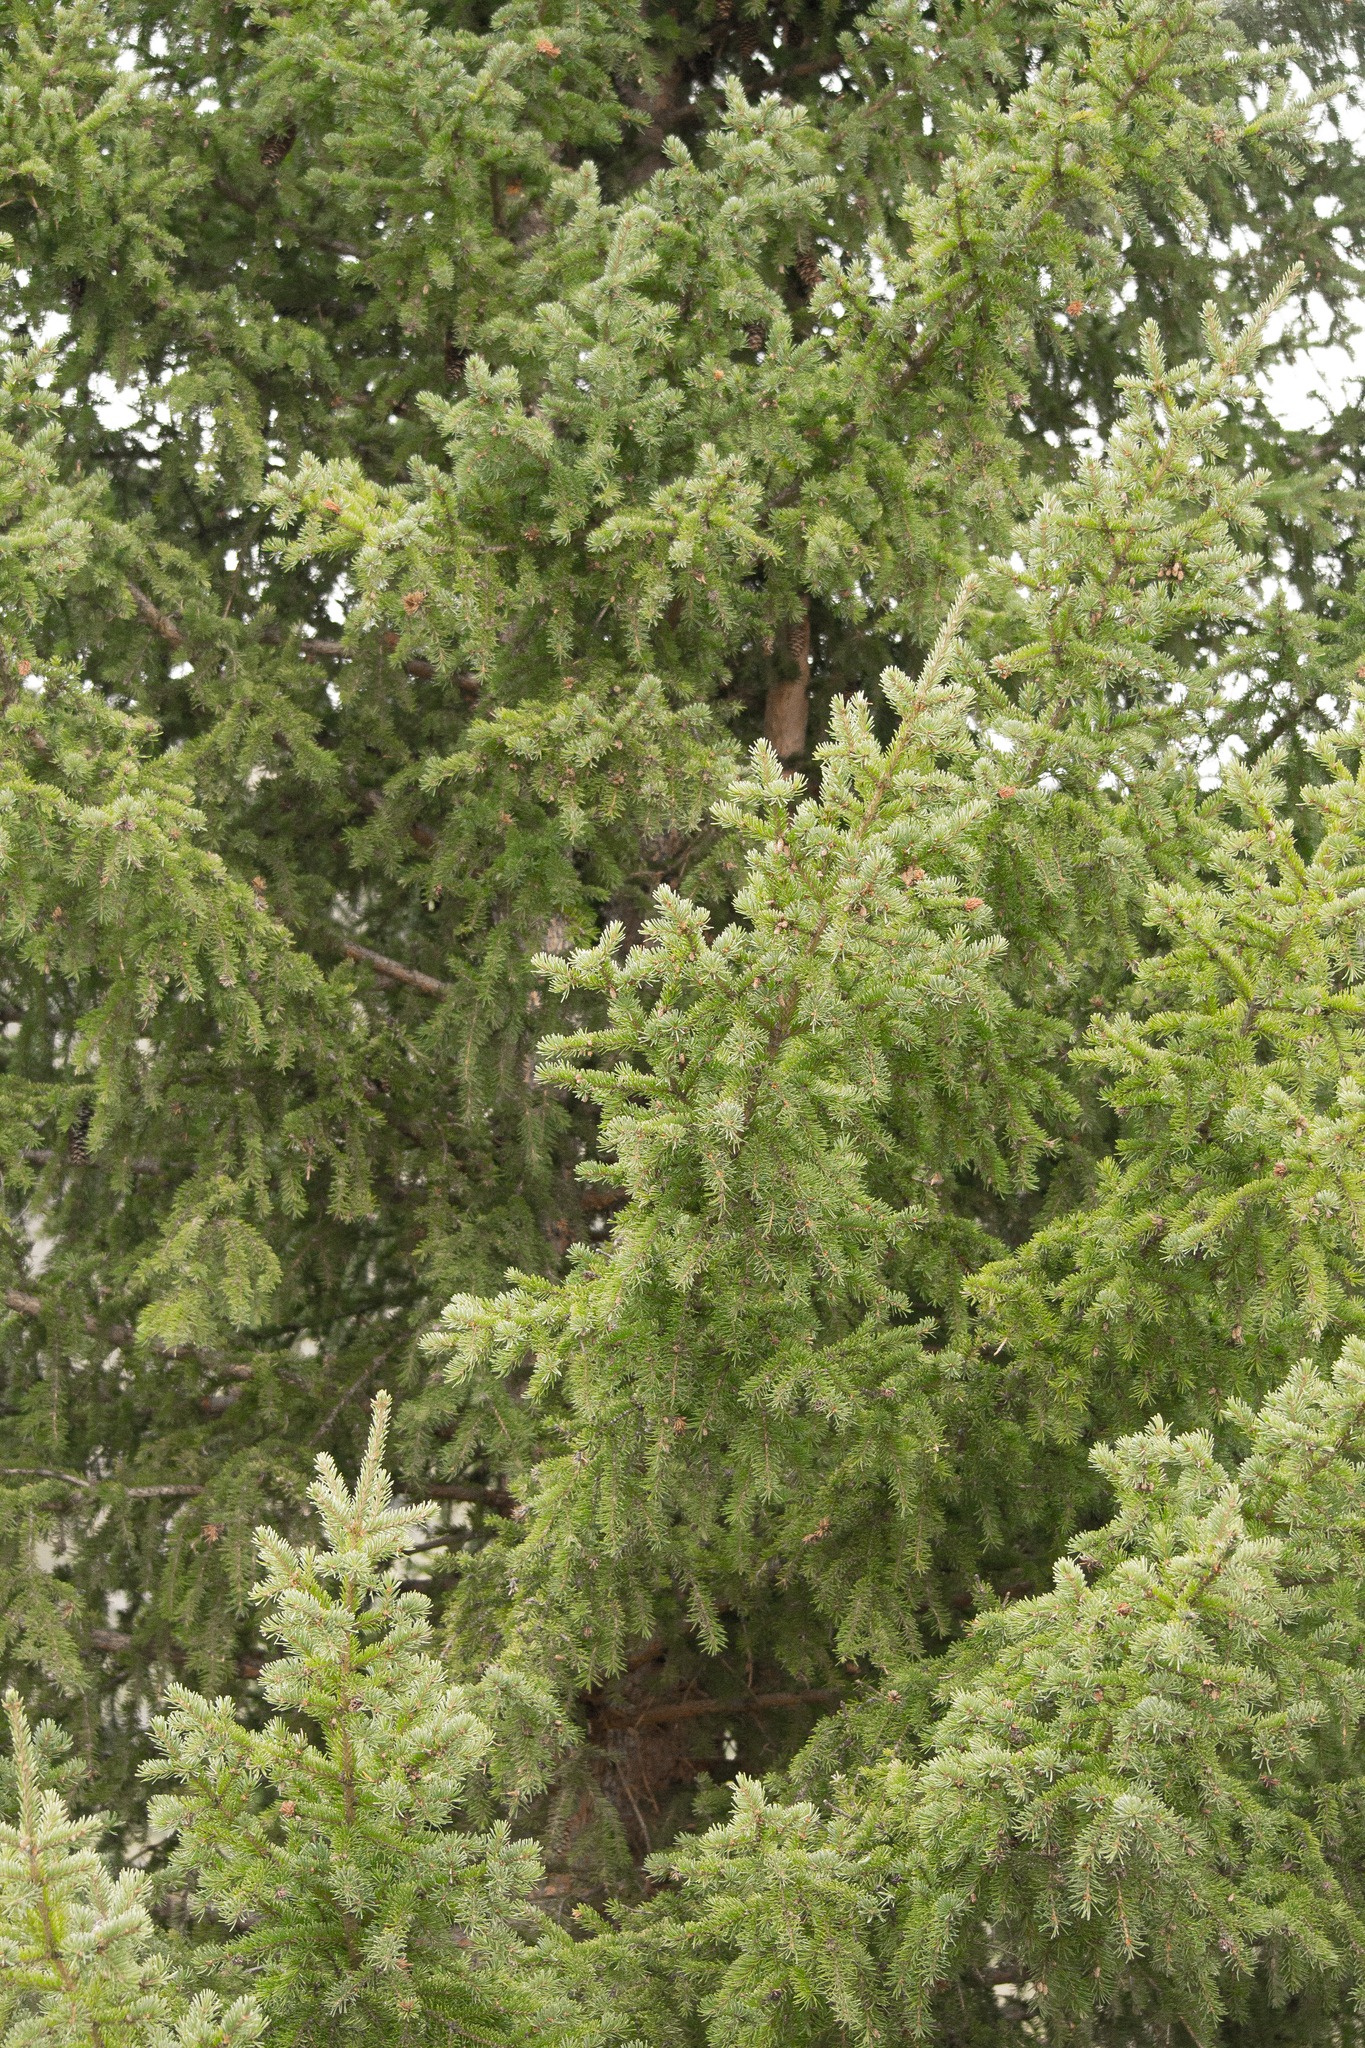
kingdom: Plantae
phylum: Tracheophyta
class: Pinopsida
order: Pinales
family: Pinaceae
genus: Picea
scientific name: Picea obovata
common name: Siberian spruce
